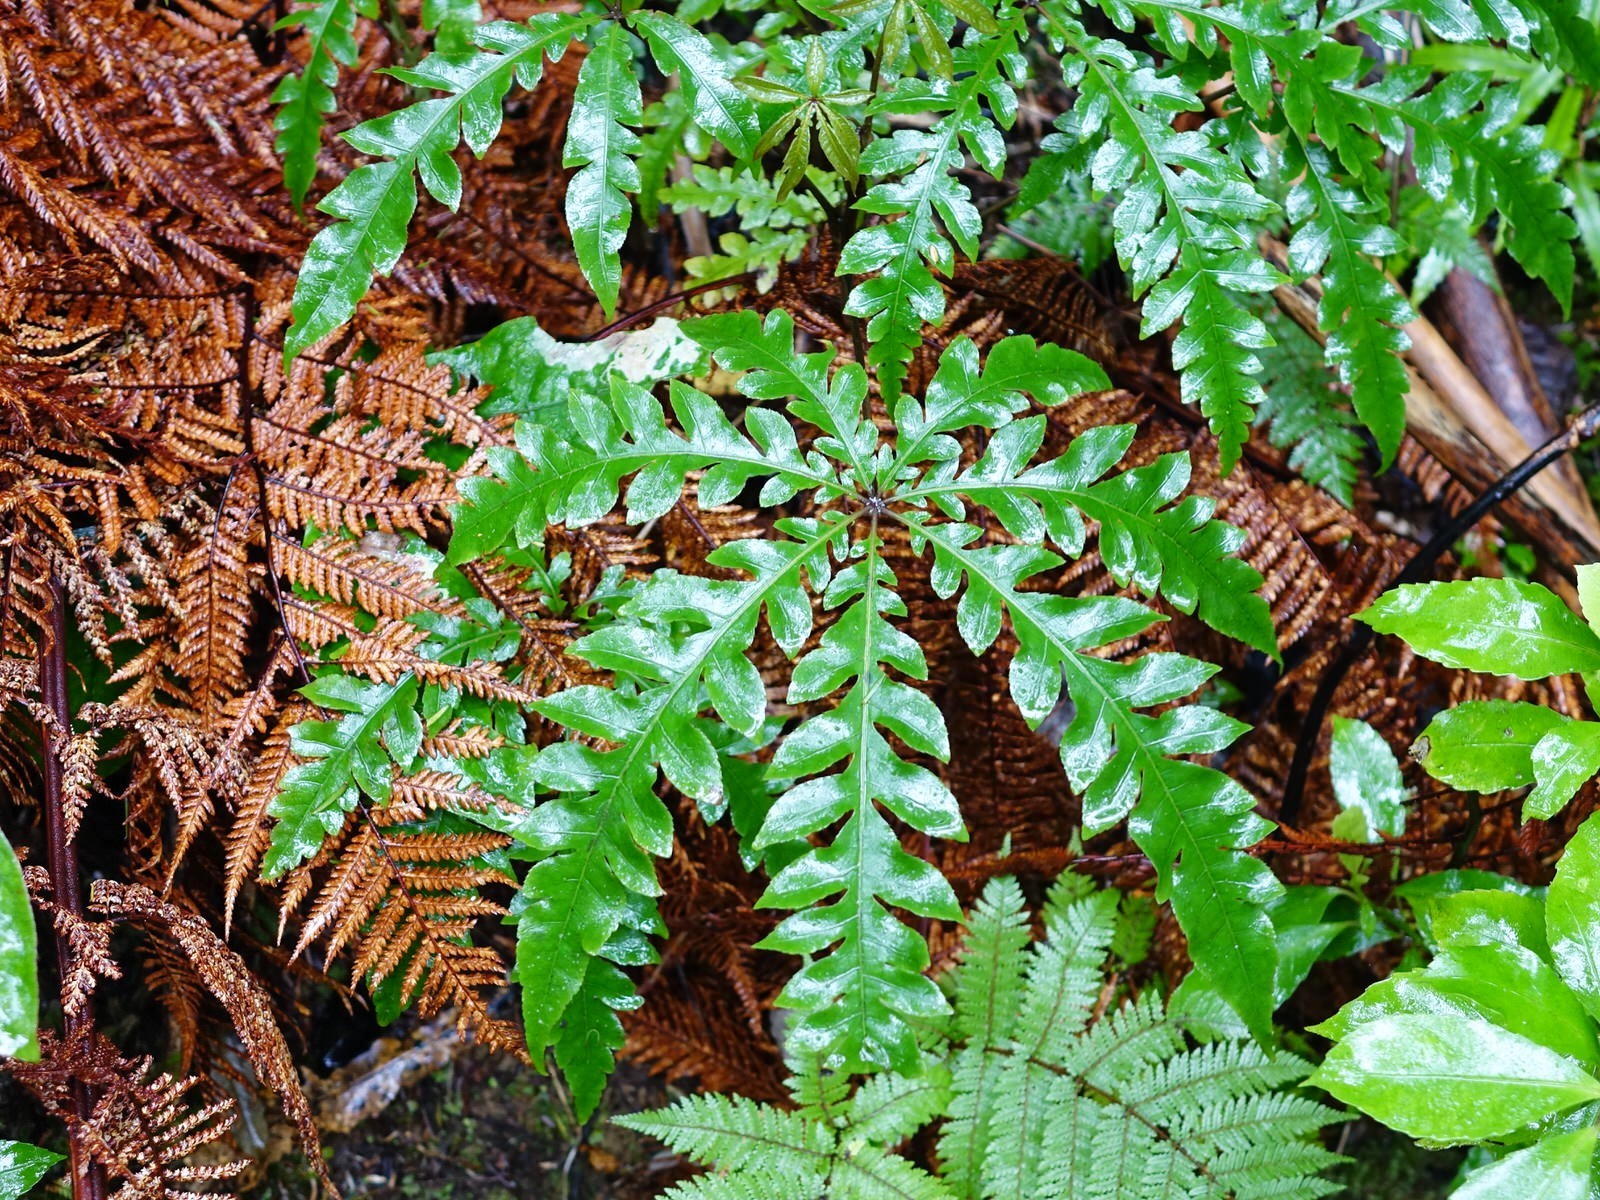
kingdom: Plantae
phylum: Tracheophyta
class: Magnoliopsida
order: Apiales
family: Araliaceae
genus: Schefflera
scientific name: Schefflera digitata
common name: Pate
